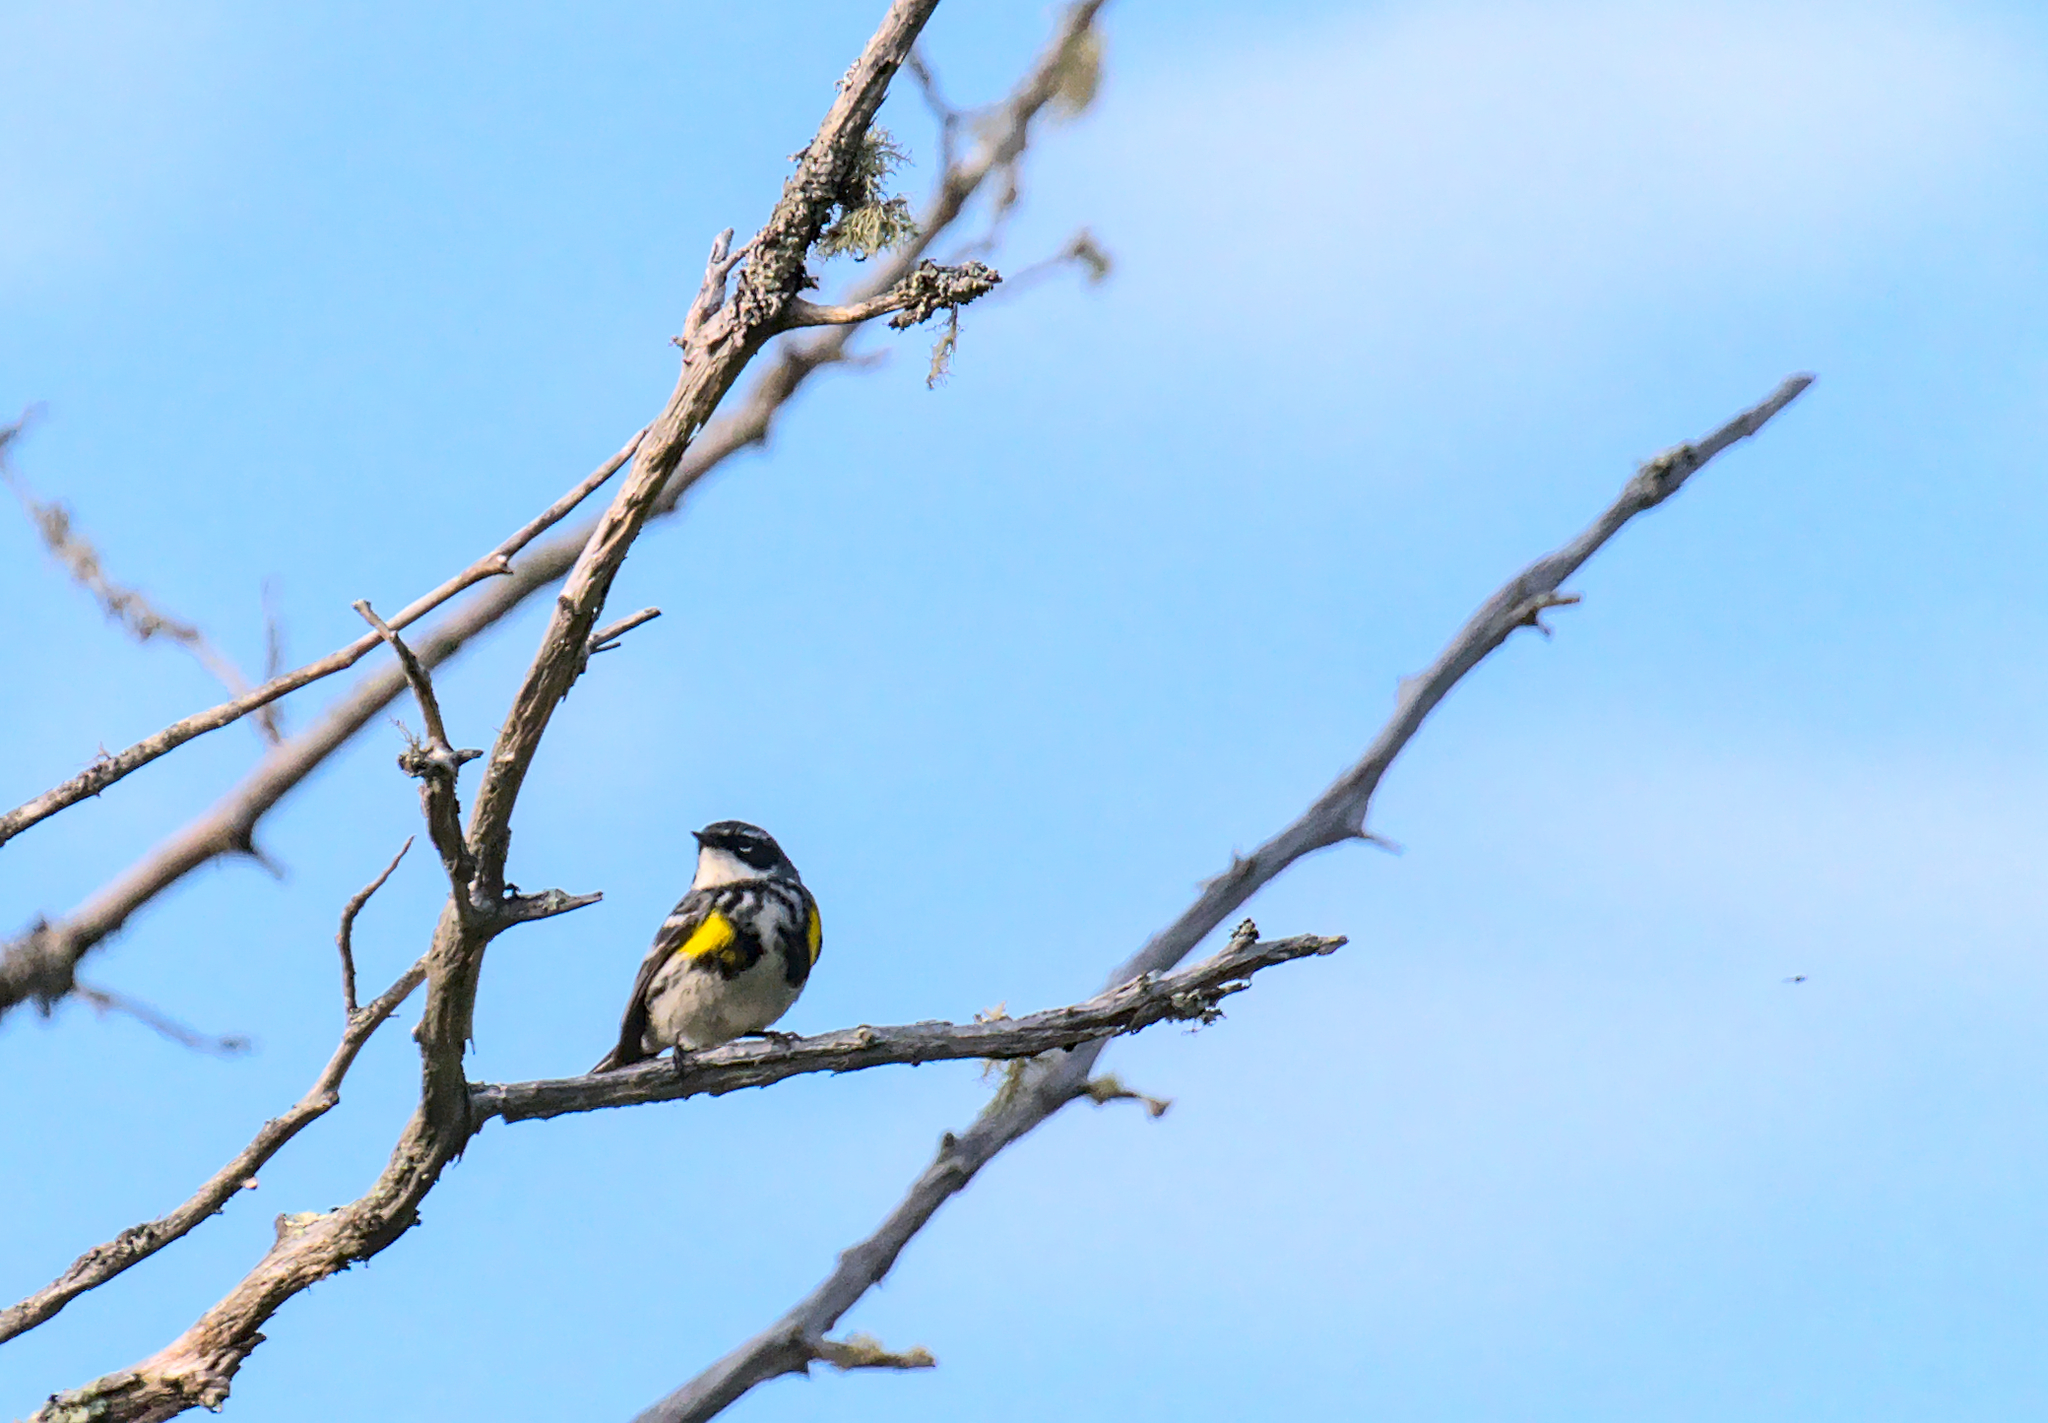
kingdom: Animalia
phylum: Chordata
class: Aves
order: Passeriformes
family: Parulidae
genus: Setophaga
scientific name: Setophaga coronata
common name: Myrtle warbler
